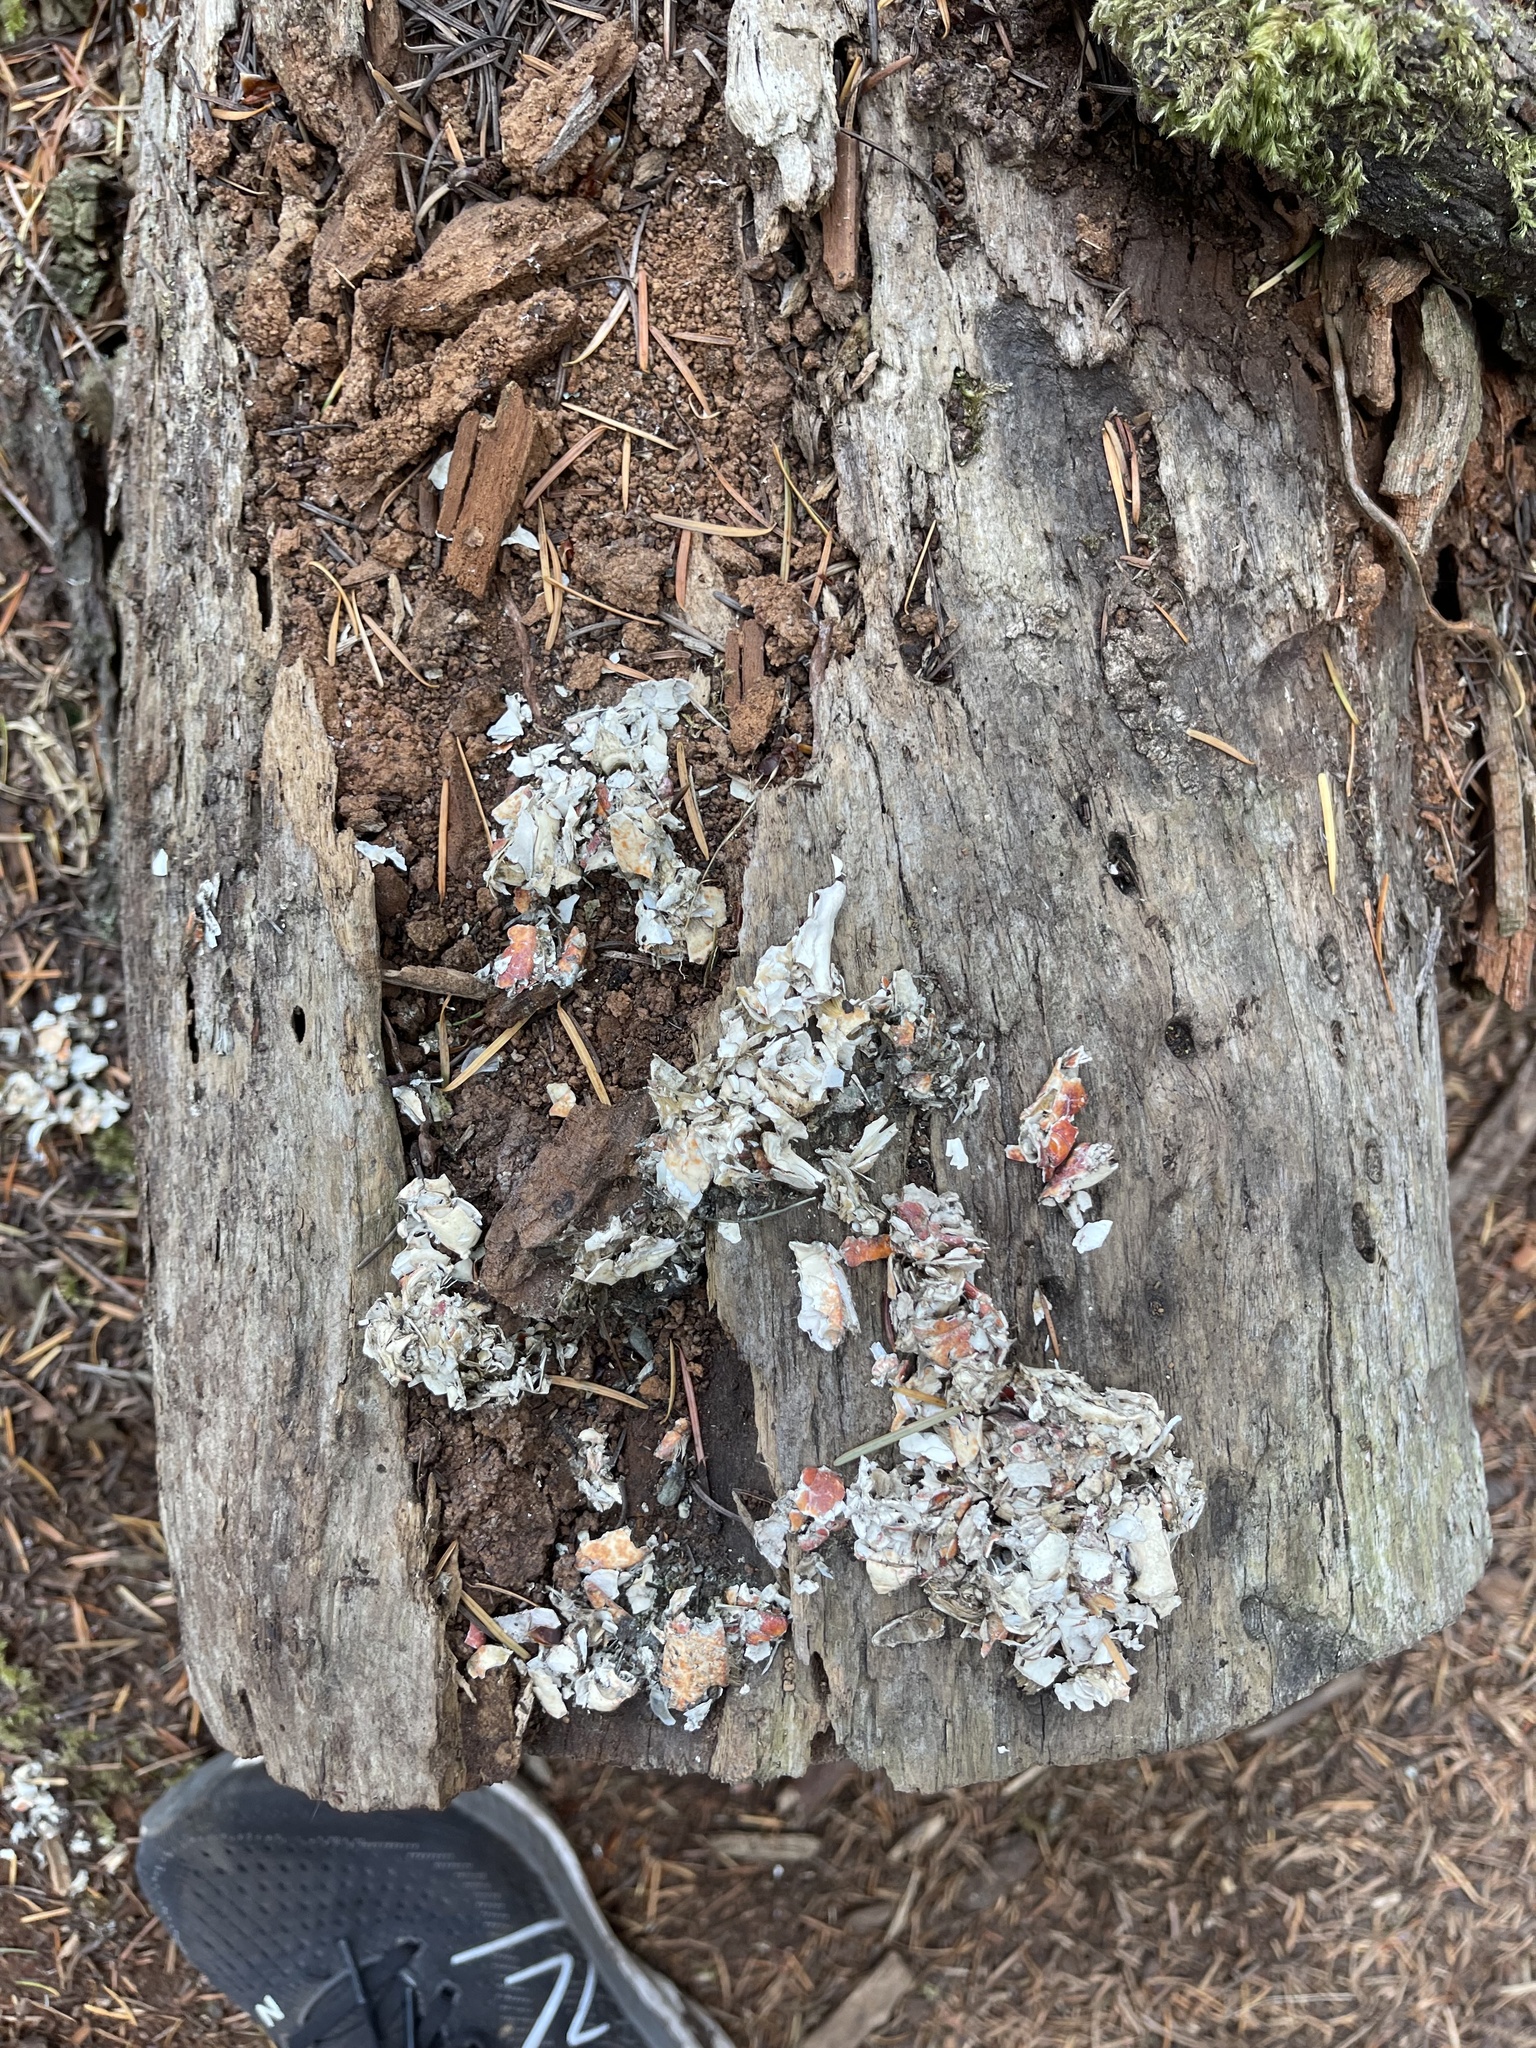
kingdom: Animalia
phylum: Chordata
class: Mammalia
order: Carnivora
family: Mustelidae
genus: Lontra
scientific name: Lontra canadensis
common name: North american river otter
